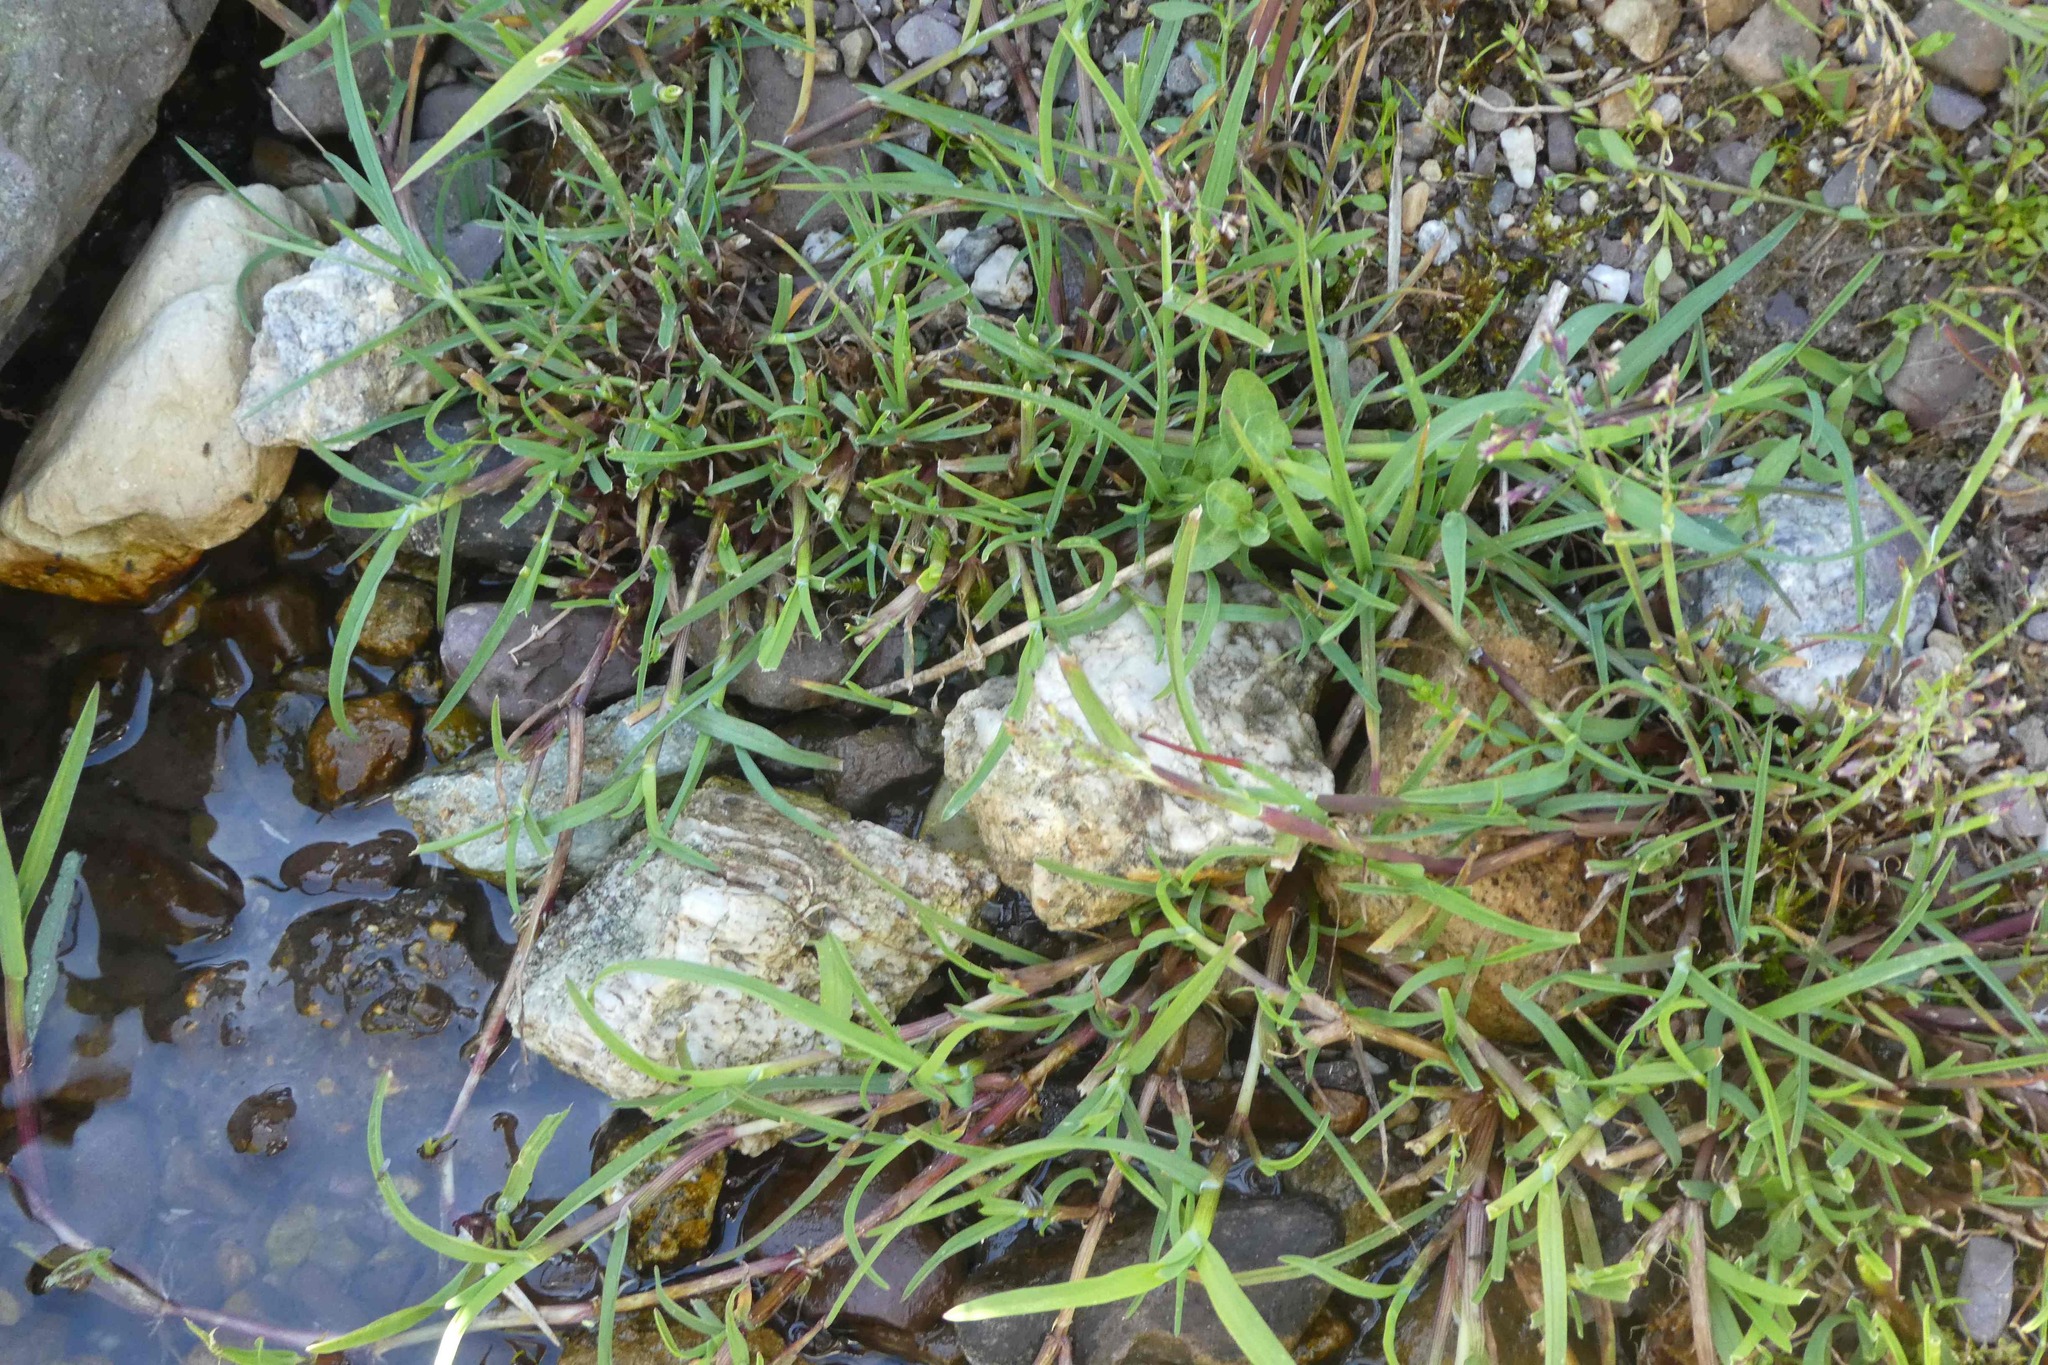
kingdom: Plantae
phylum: Tracheophyta
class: Liliopsida
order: Poales
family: Poaceae
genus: Catabrosa
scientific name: Catabrosa aquatica
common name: Whorl-grass
